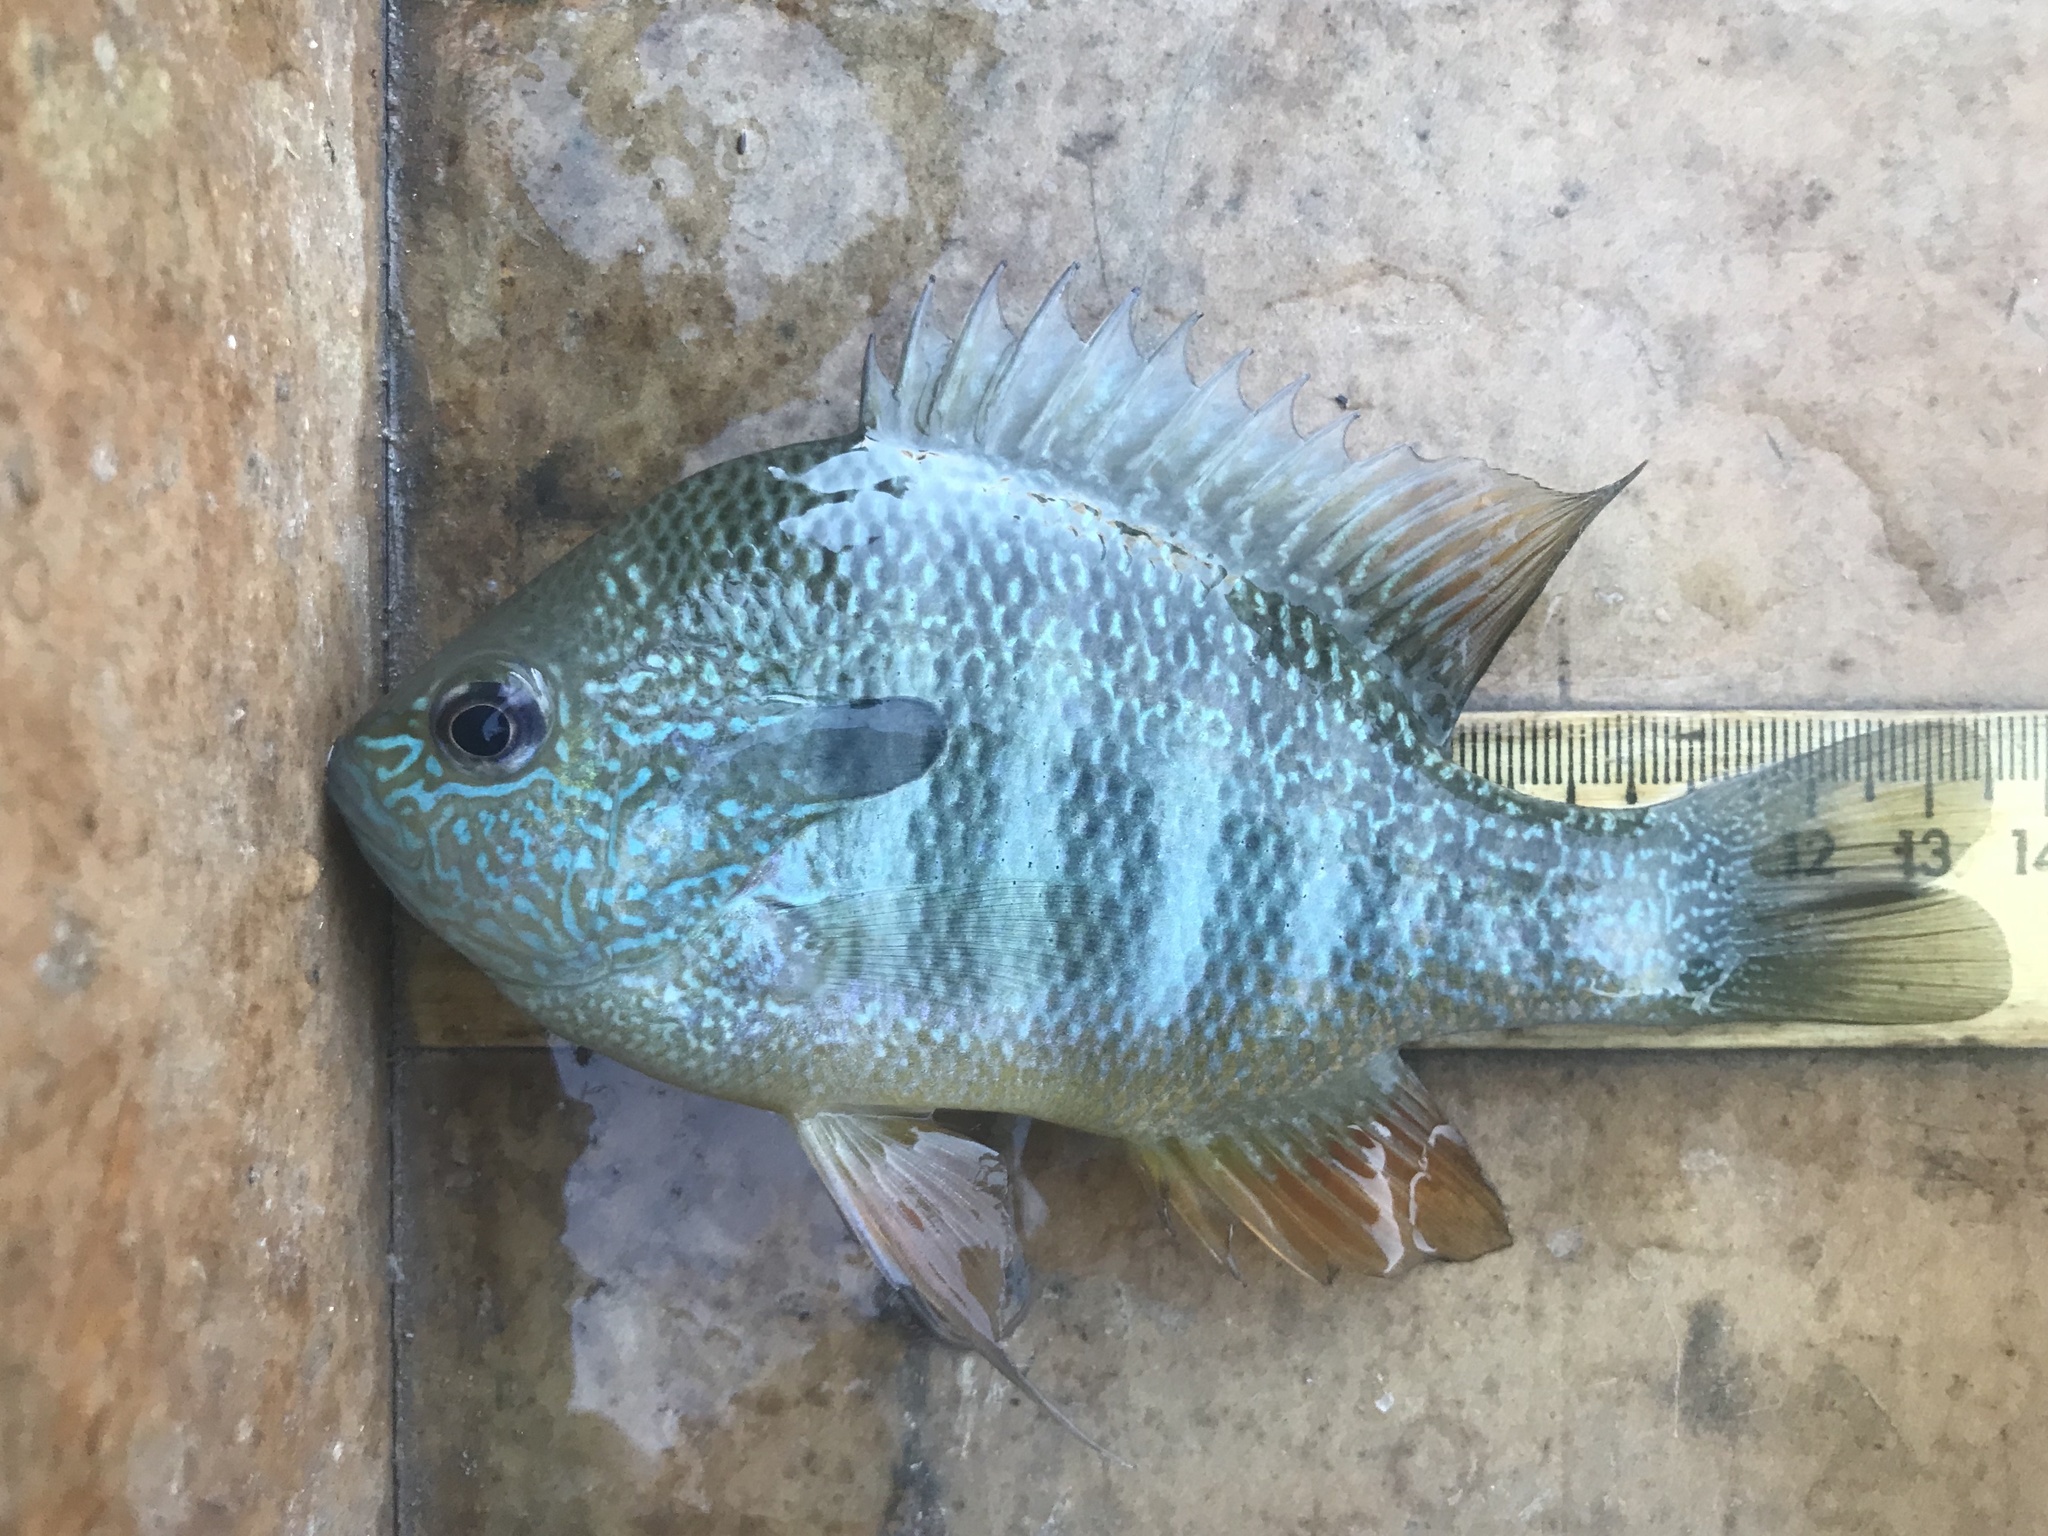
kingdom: Animalia
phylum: Chordata
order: Perciformes
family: Centrarchidae
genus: Lepomis
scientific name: Lepomis megalotis
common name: Longear sunfish
